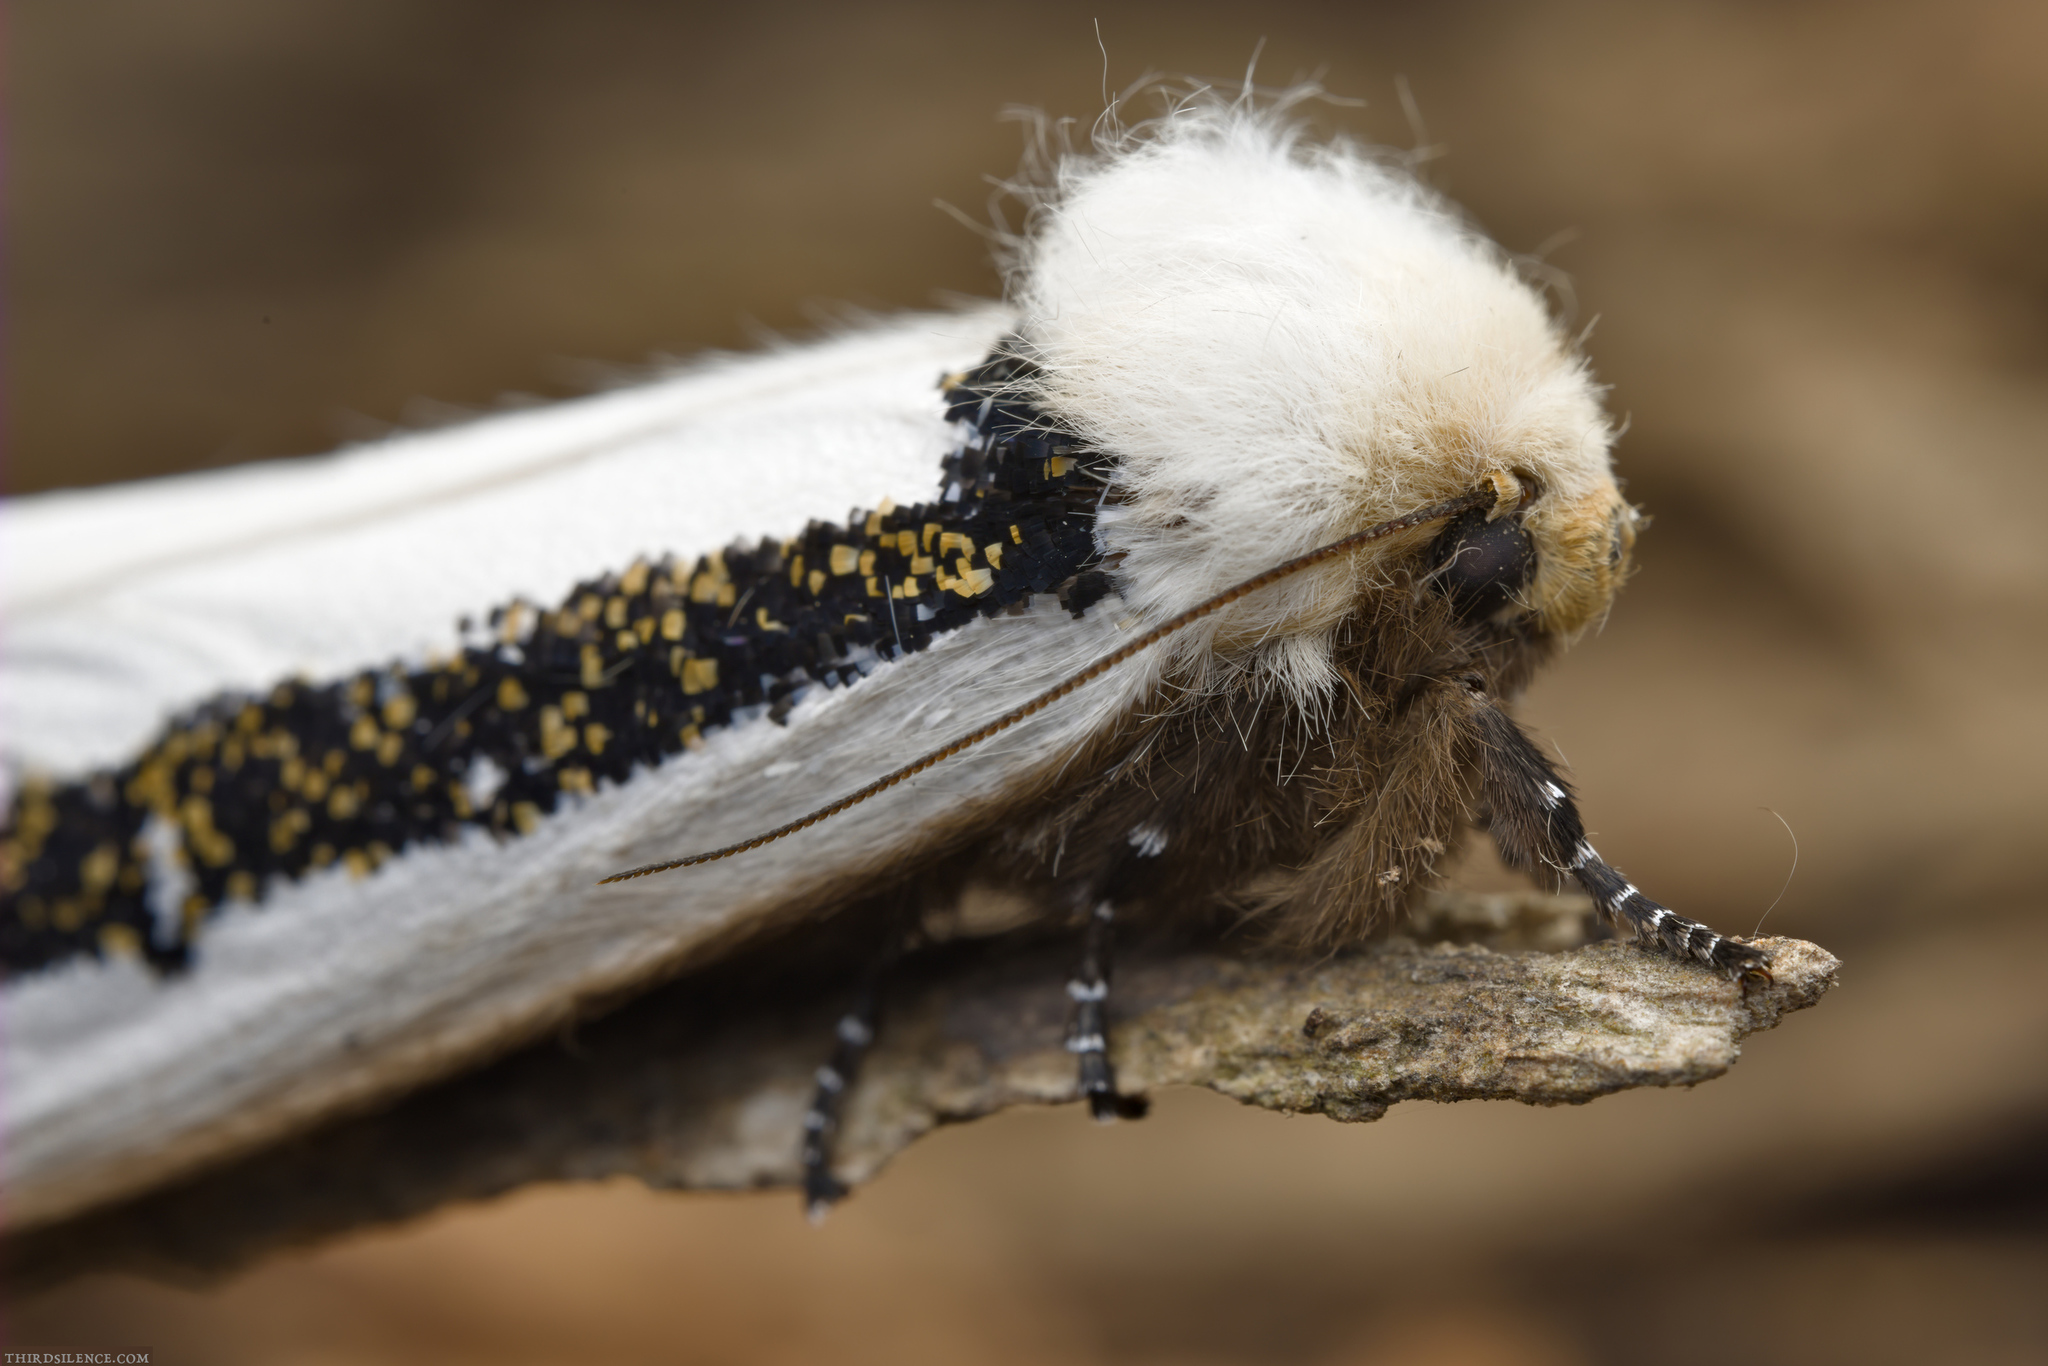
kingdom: Animalia
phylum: Arthropoda
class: Insecta
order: Lepidoptera
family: Oenosandridae
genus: Oenosandra
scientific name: Oenosandra boisduvalii
